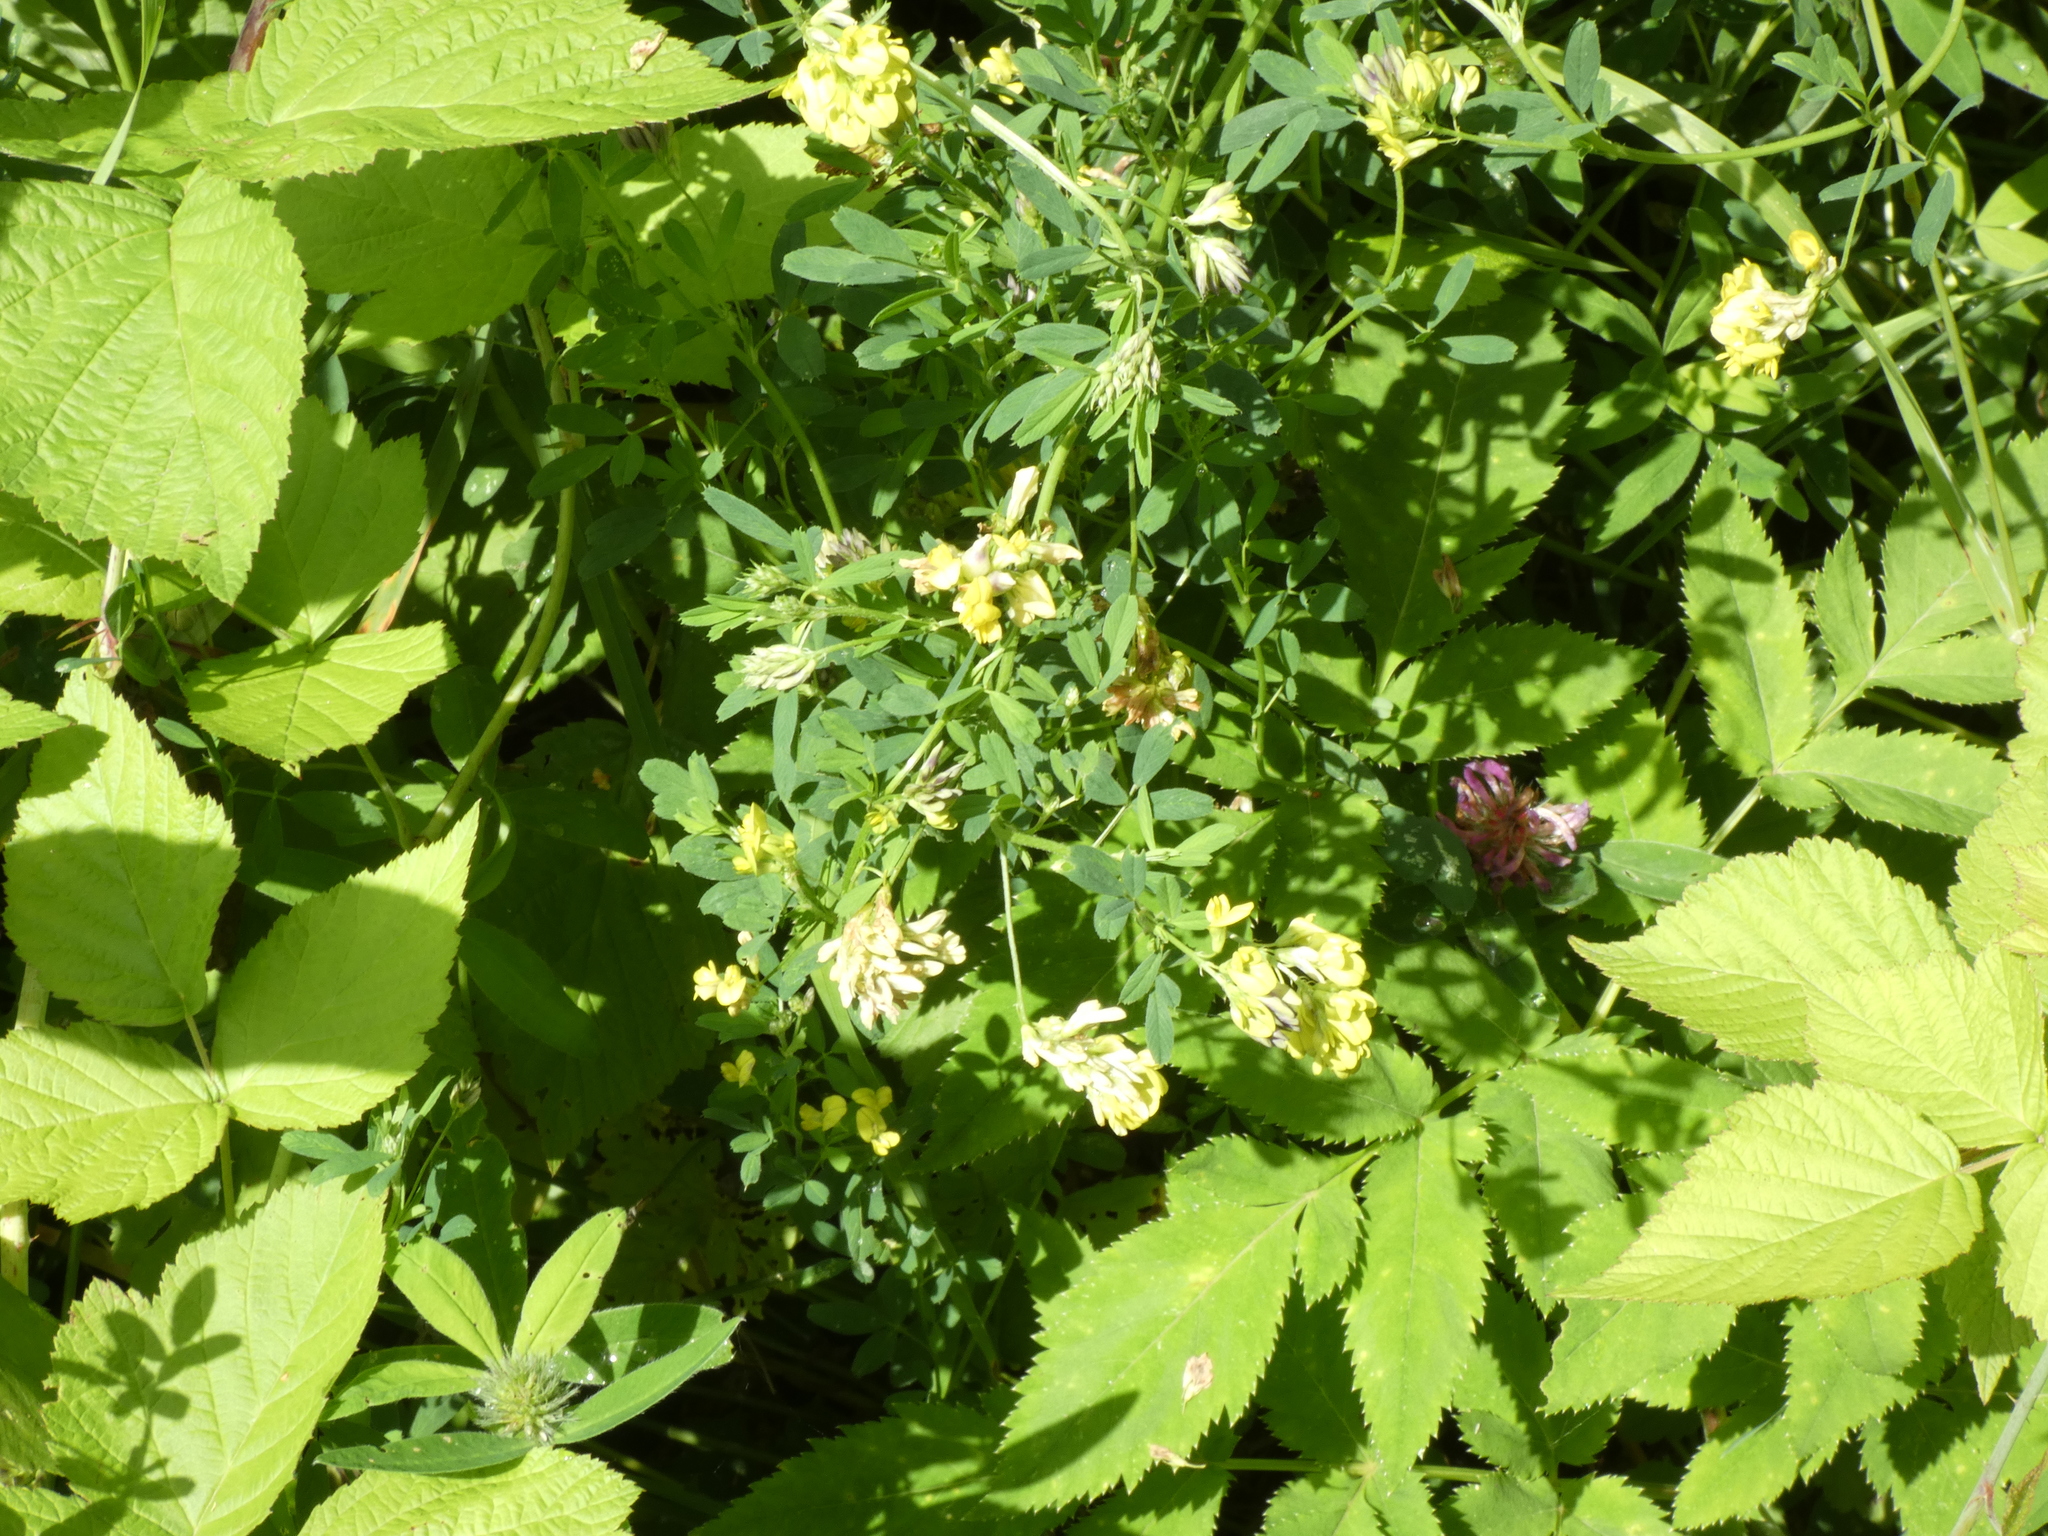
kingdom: Plantae
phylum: Tracheophyta
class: Magnoliopsida
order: Fabales
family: Fabaceae
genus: Medicago
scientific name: Medicago falcata
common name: Sickle medick
